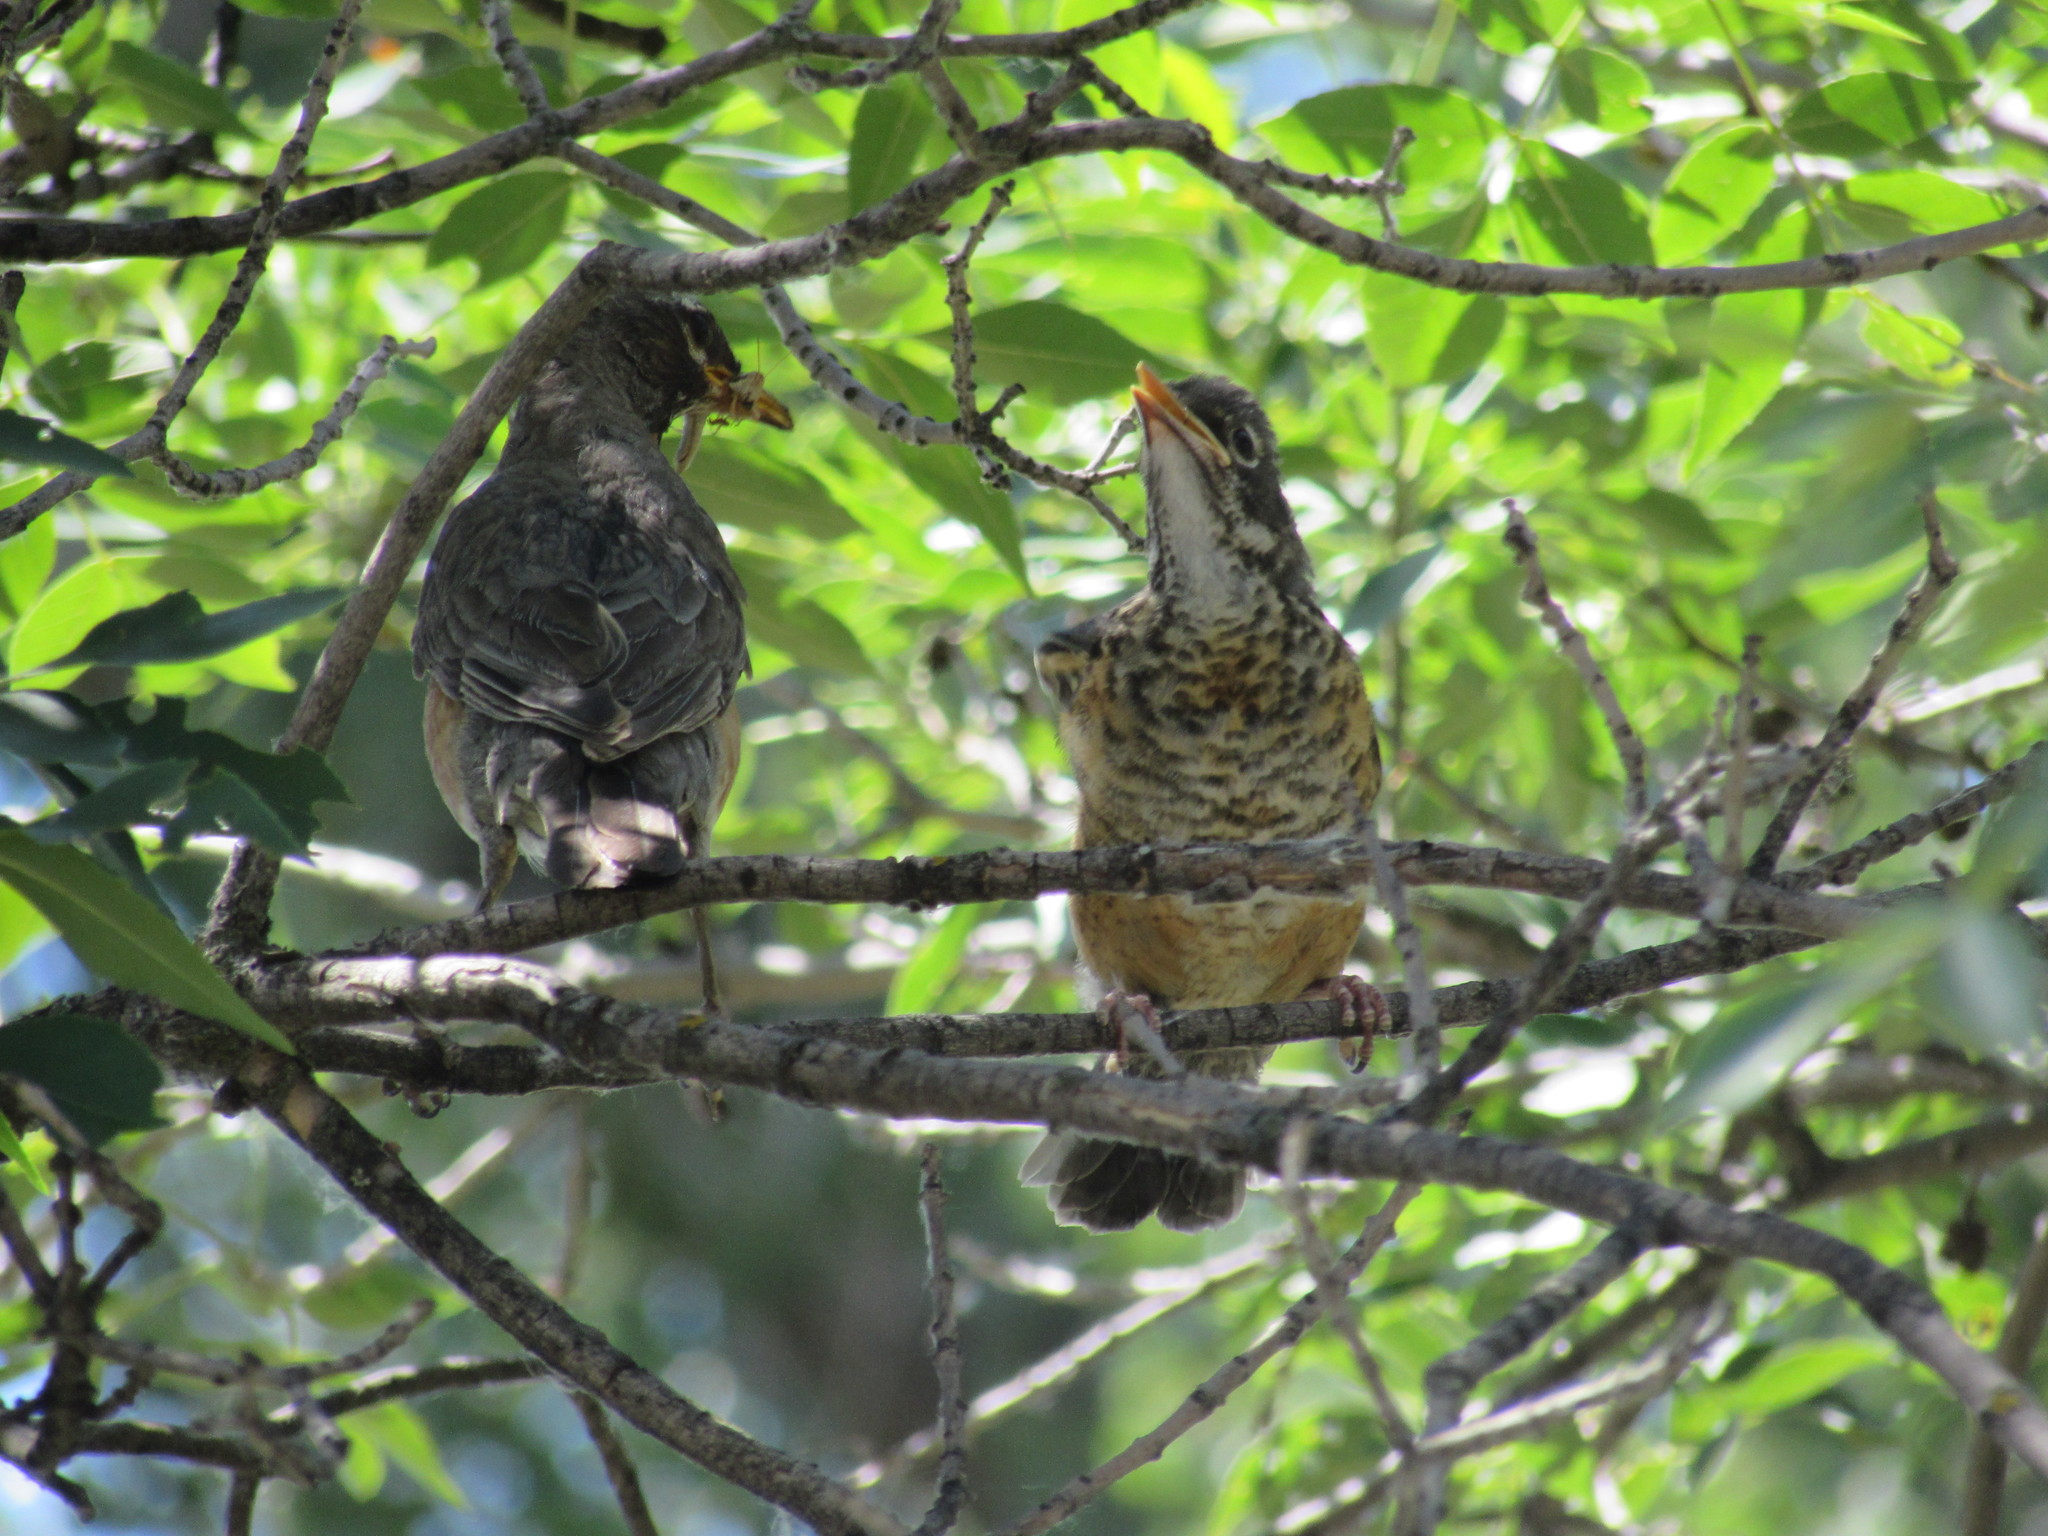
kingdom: Animalia
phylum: Chordata
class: Aves
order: Passeriformes
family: Turdidae
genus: Turdus
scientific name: Turdus migratorius
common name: American robin
